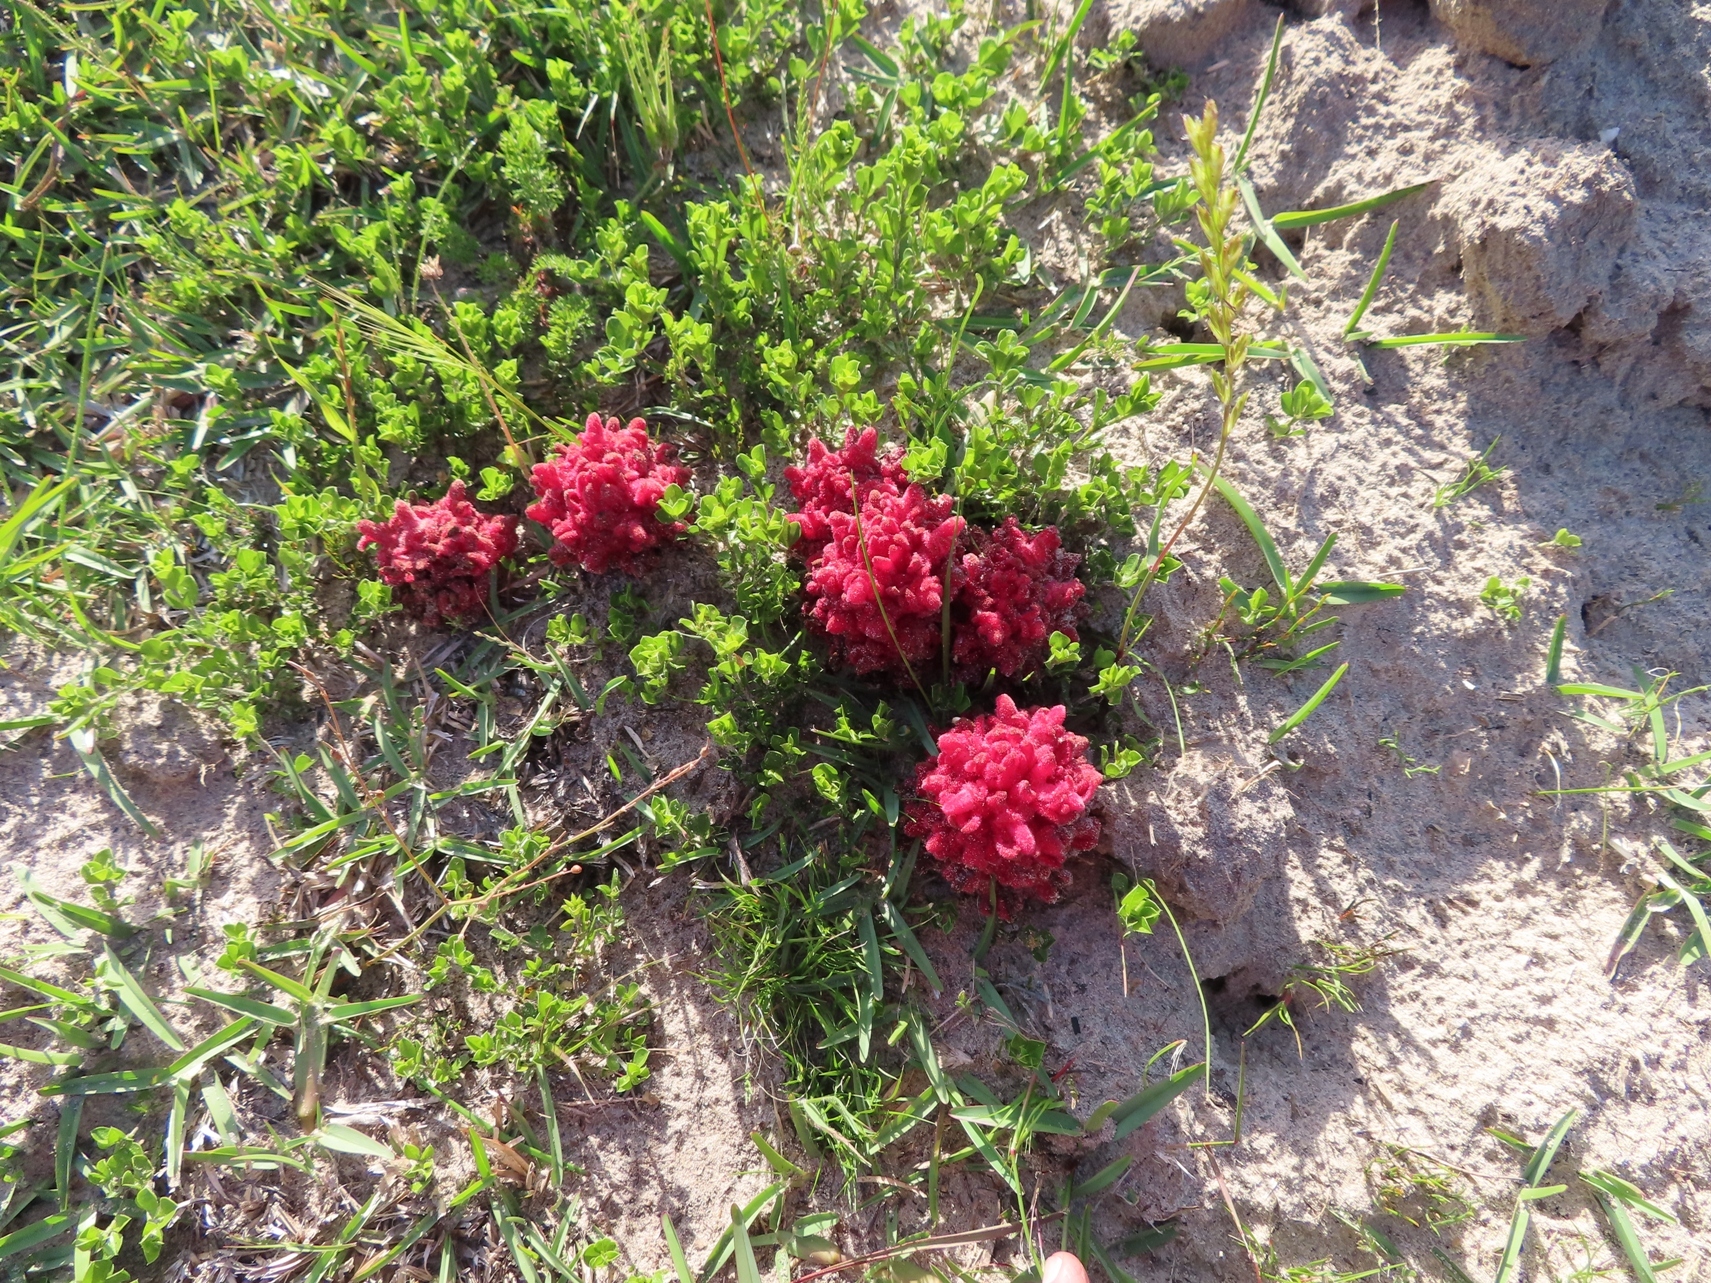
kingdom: Plantae
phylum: Tracheophyta
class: Magnoliopsida
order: Lamiales
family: Orobanchaceae
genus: Hyobanche
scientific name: Hyobanche sanguinea
